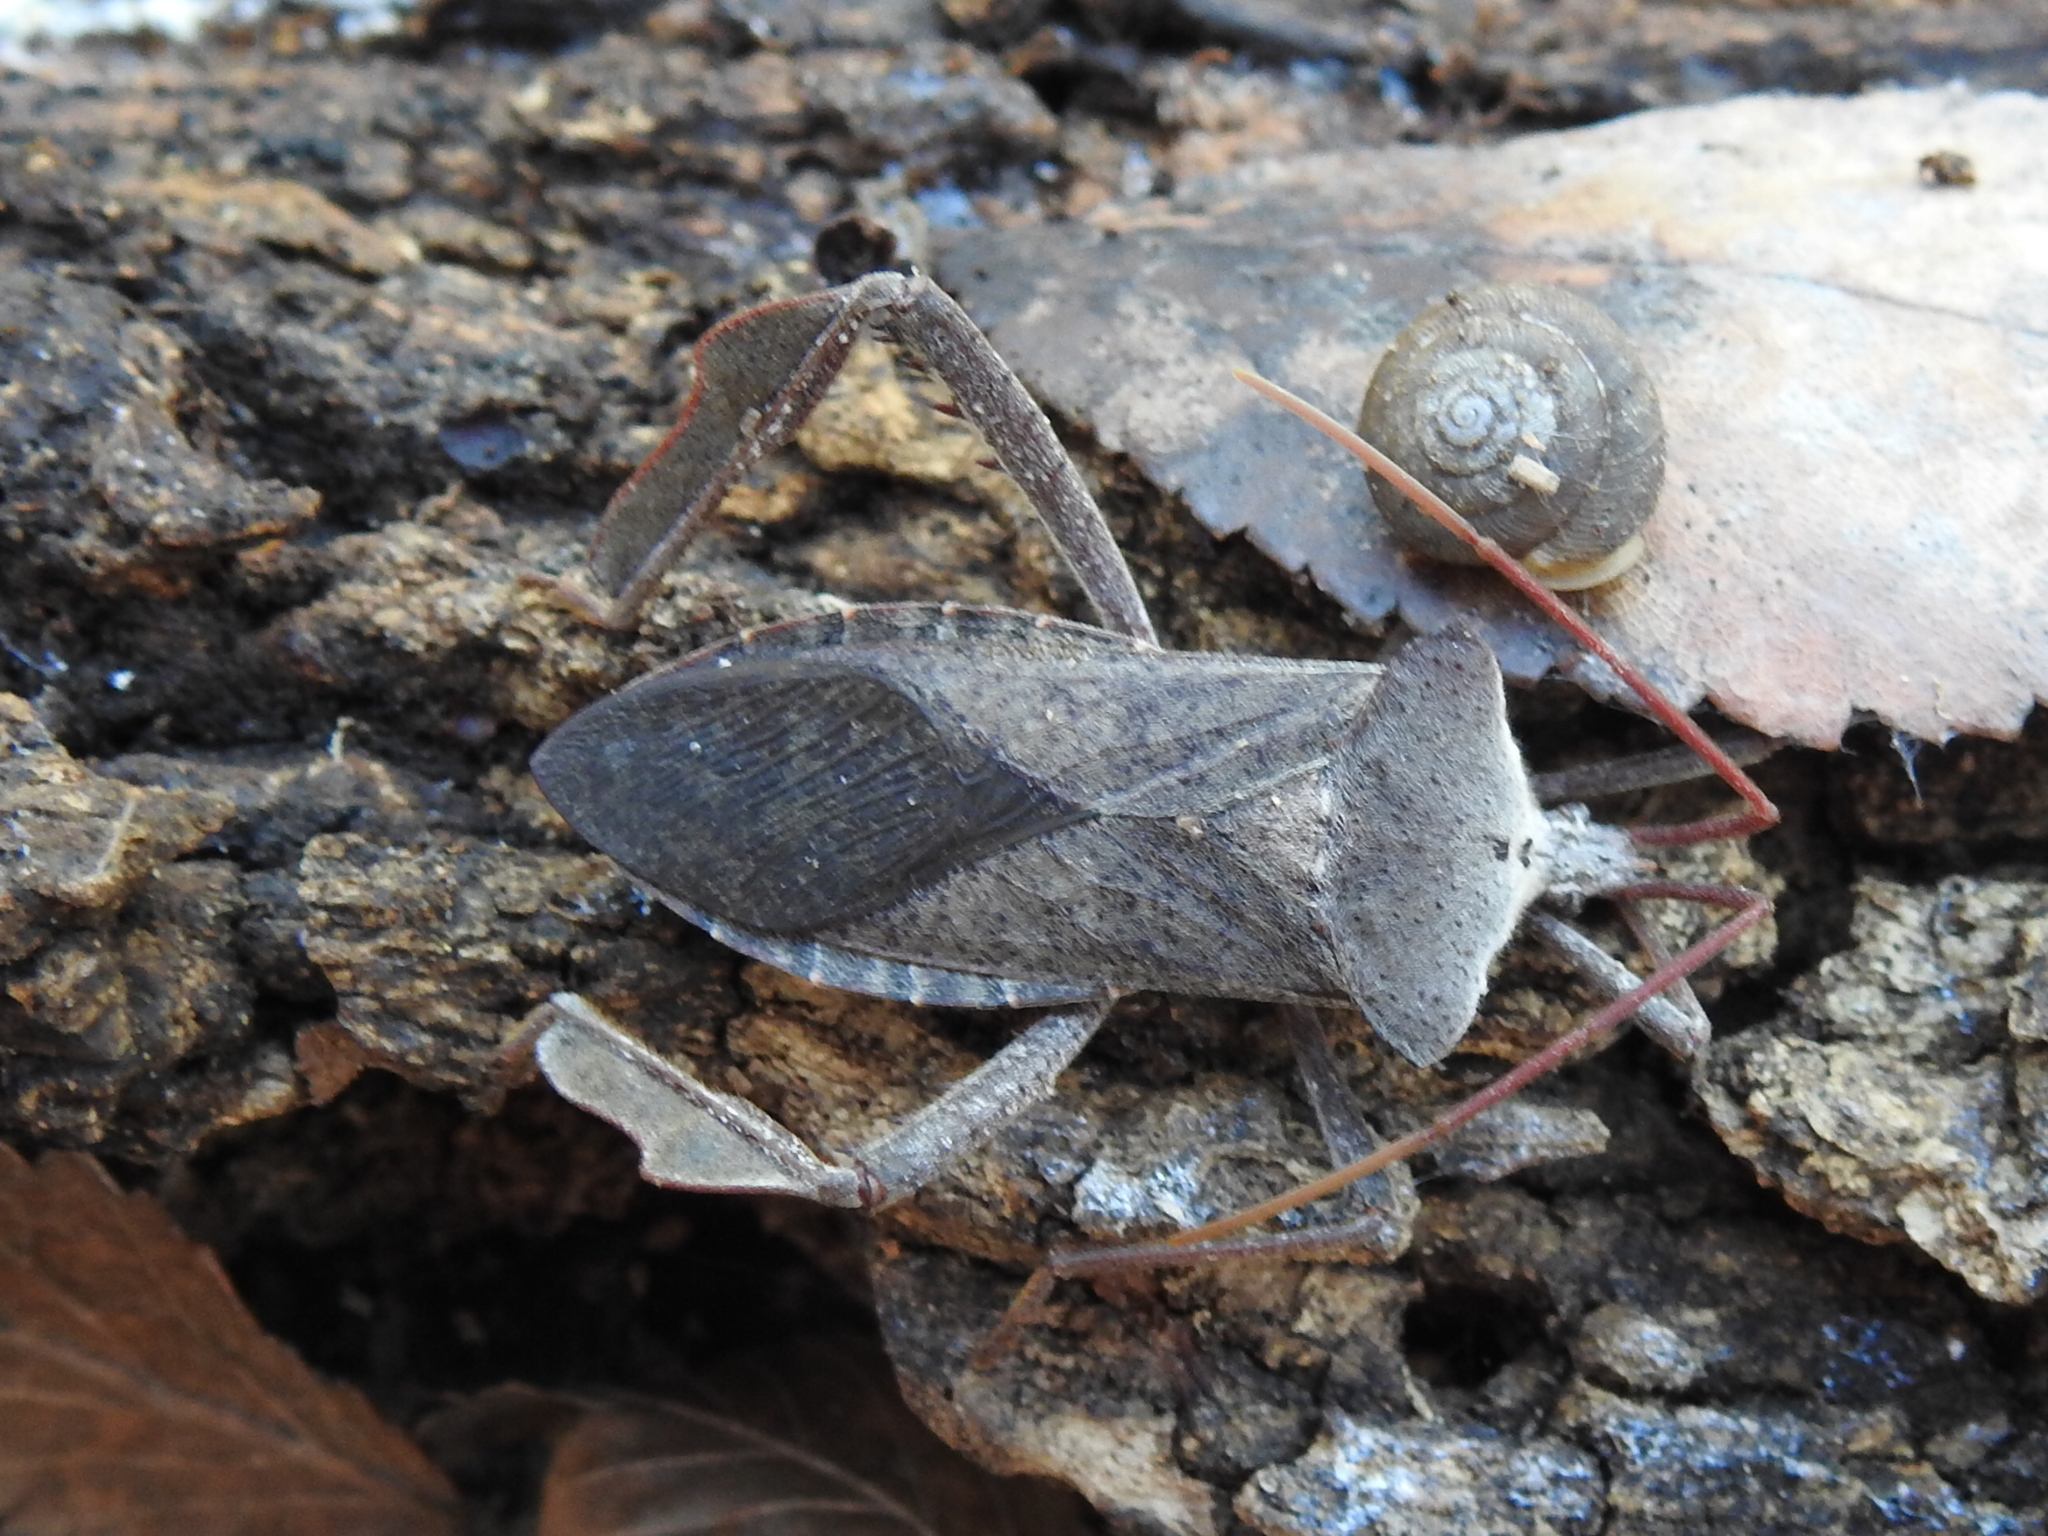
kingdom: Animalia
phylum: Arthropoda
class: Insecta
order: Hemiptera
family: Coreidae
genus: Acanthocephala
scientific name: Acanthocephala declivis
